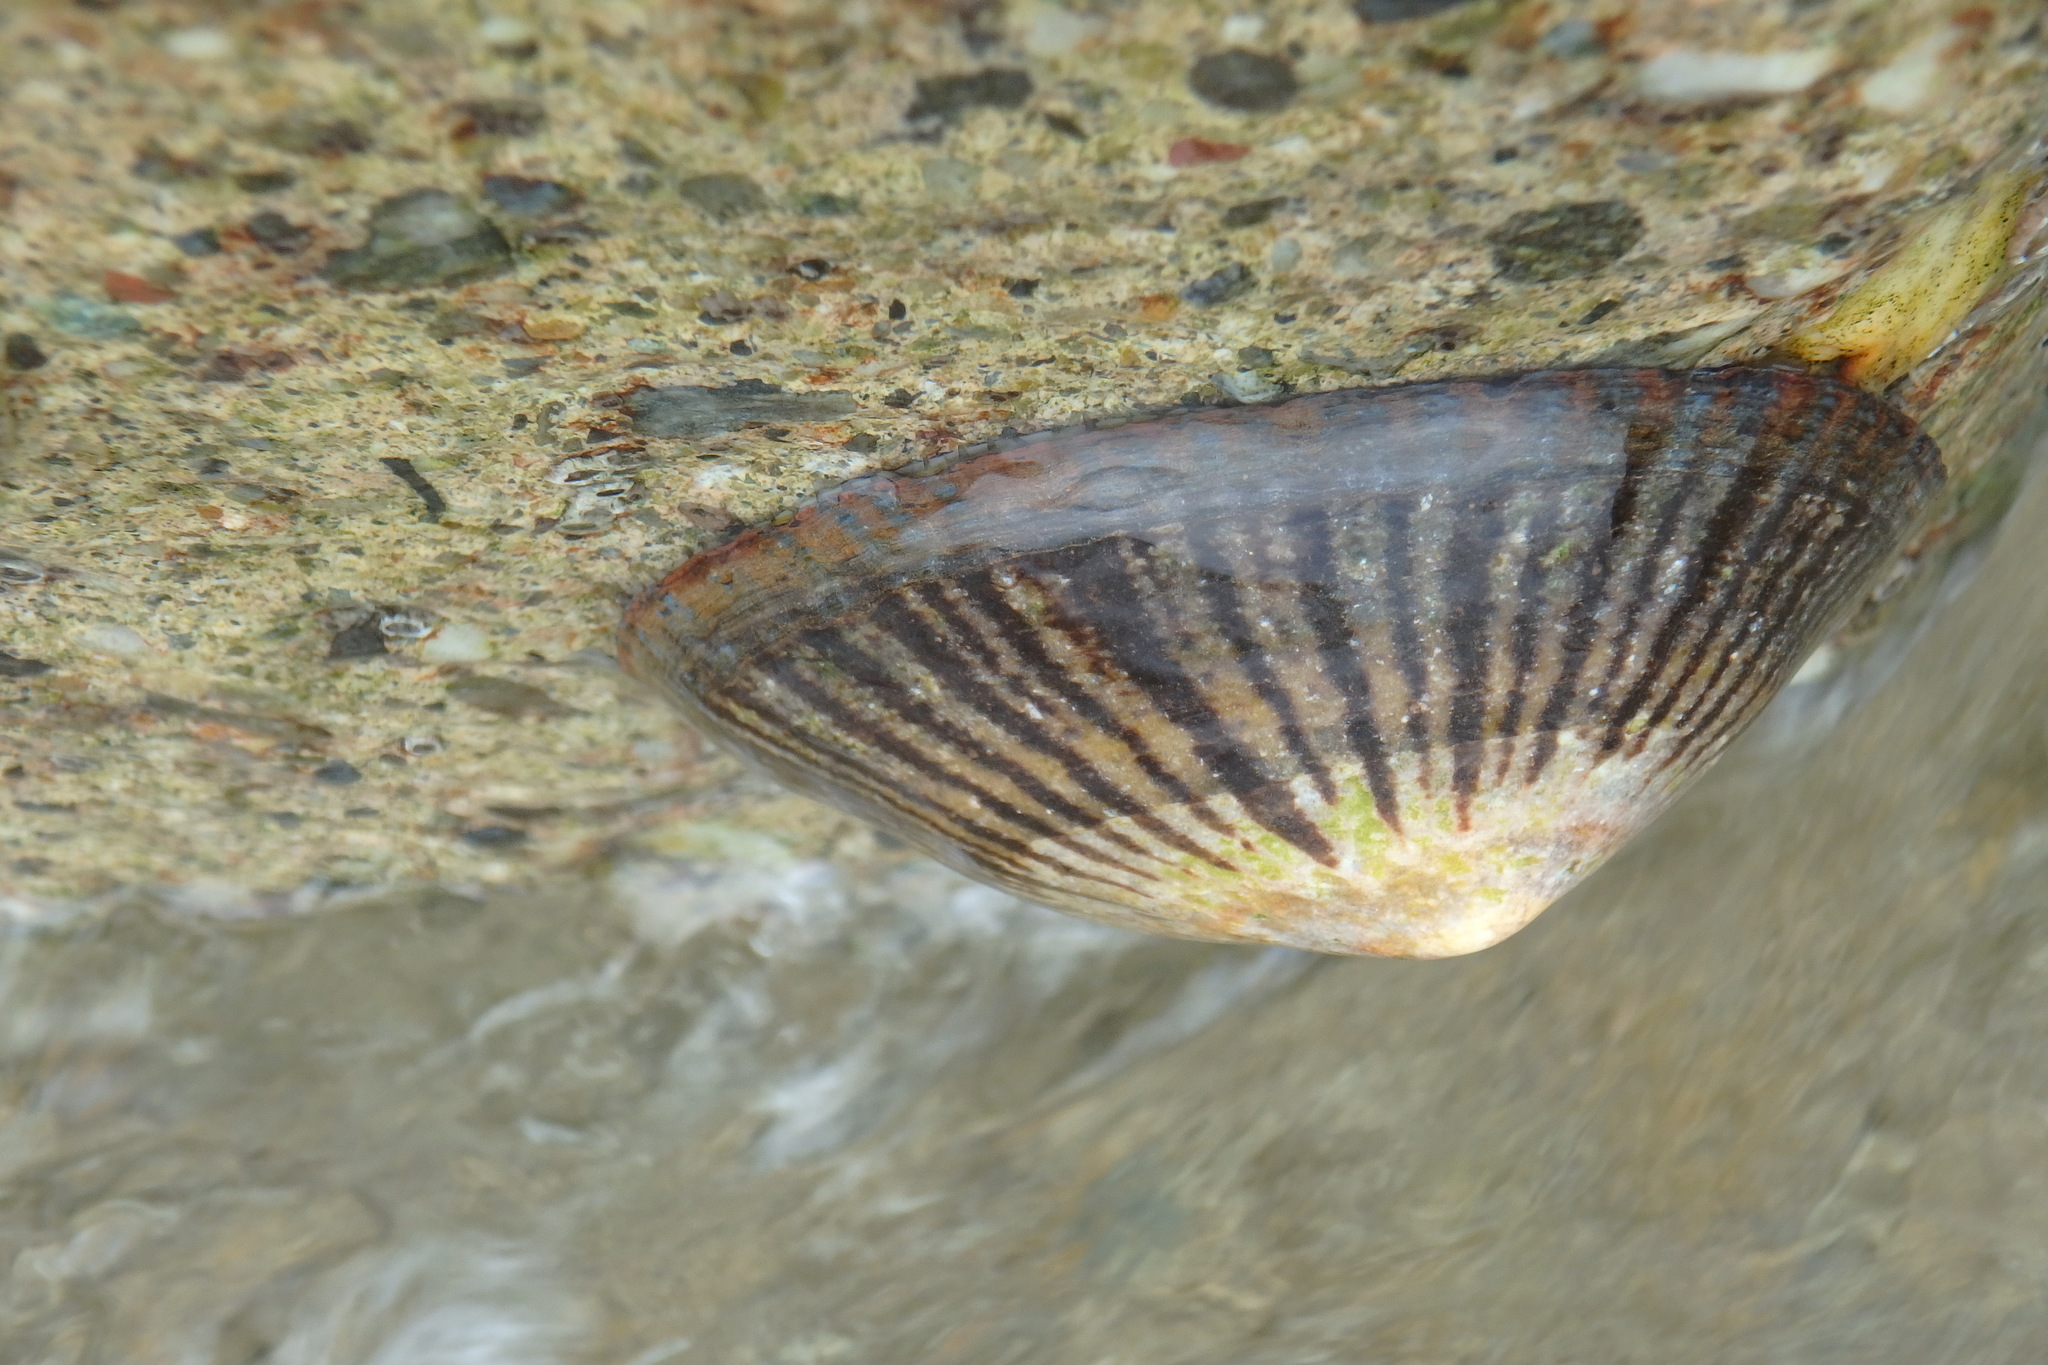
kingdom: Animalia
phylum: Mollusca
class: Gastropoda
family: Nacellidae
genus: Cellana
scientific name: Cellana nigrolineata
